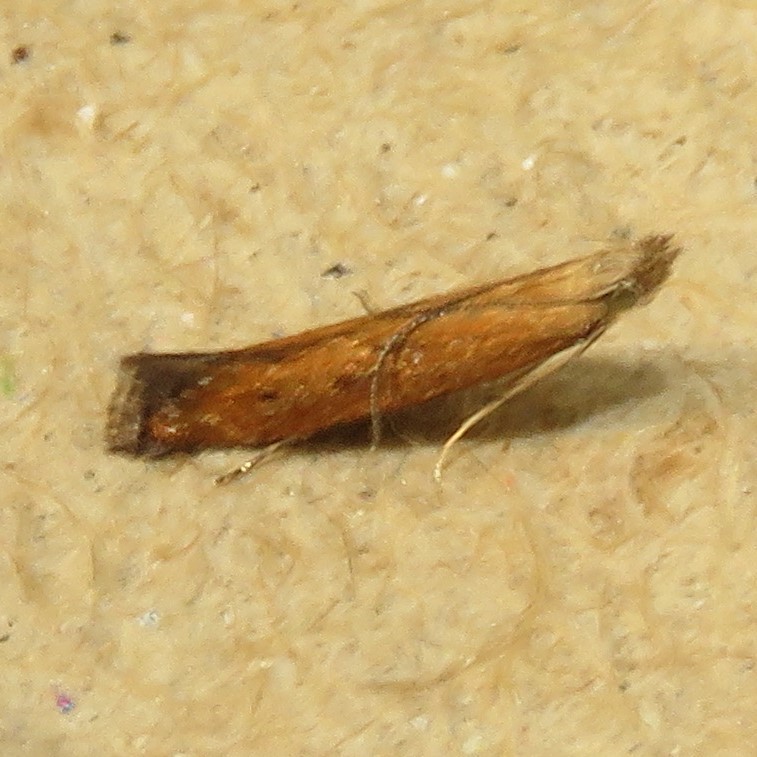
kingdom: Animalia
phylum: Arthropoda
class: Insecta
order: Lepidoptera
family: Gelechiidae
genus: Isophrictis
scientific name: Isophrictis anteliella
